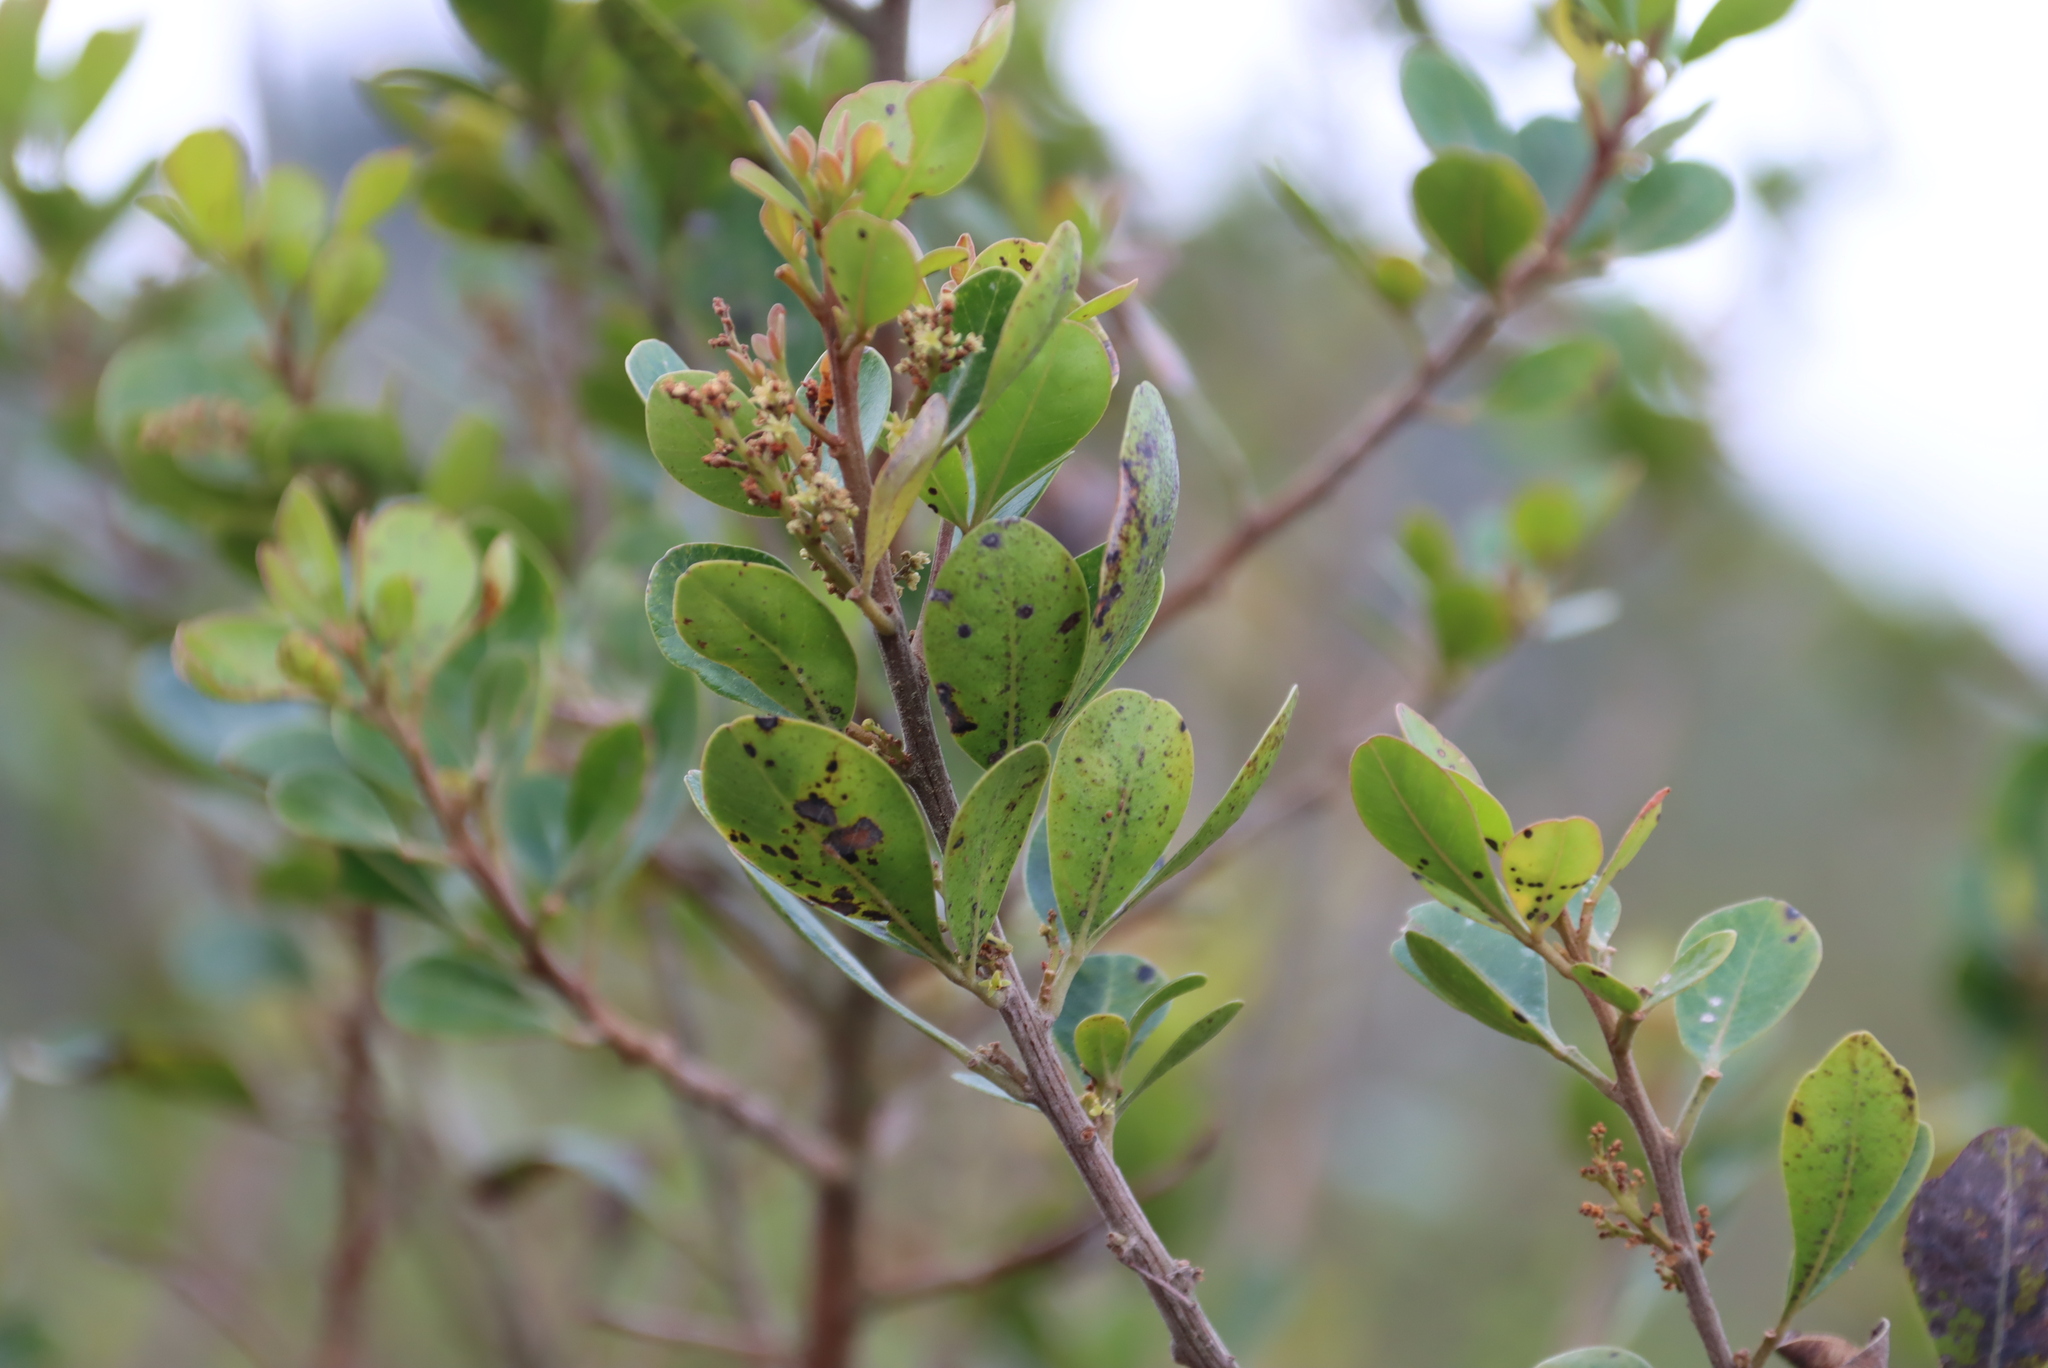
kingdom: Plantae
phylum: Tracheophyta
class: Magnoliopsida
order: Sapindales
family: Anacardiaceae
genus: Searsia
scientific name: Searsia lucida
